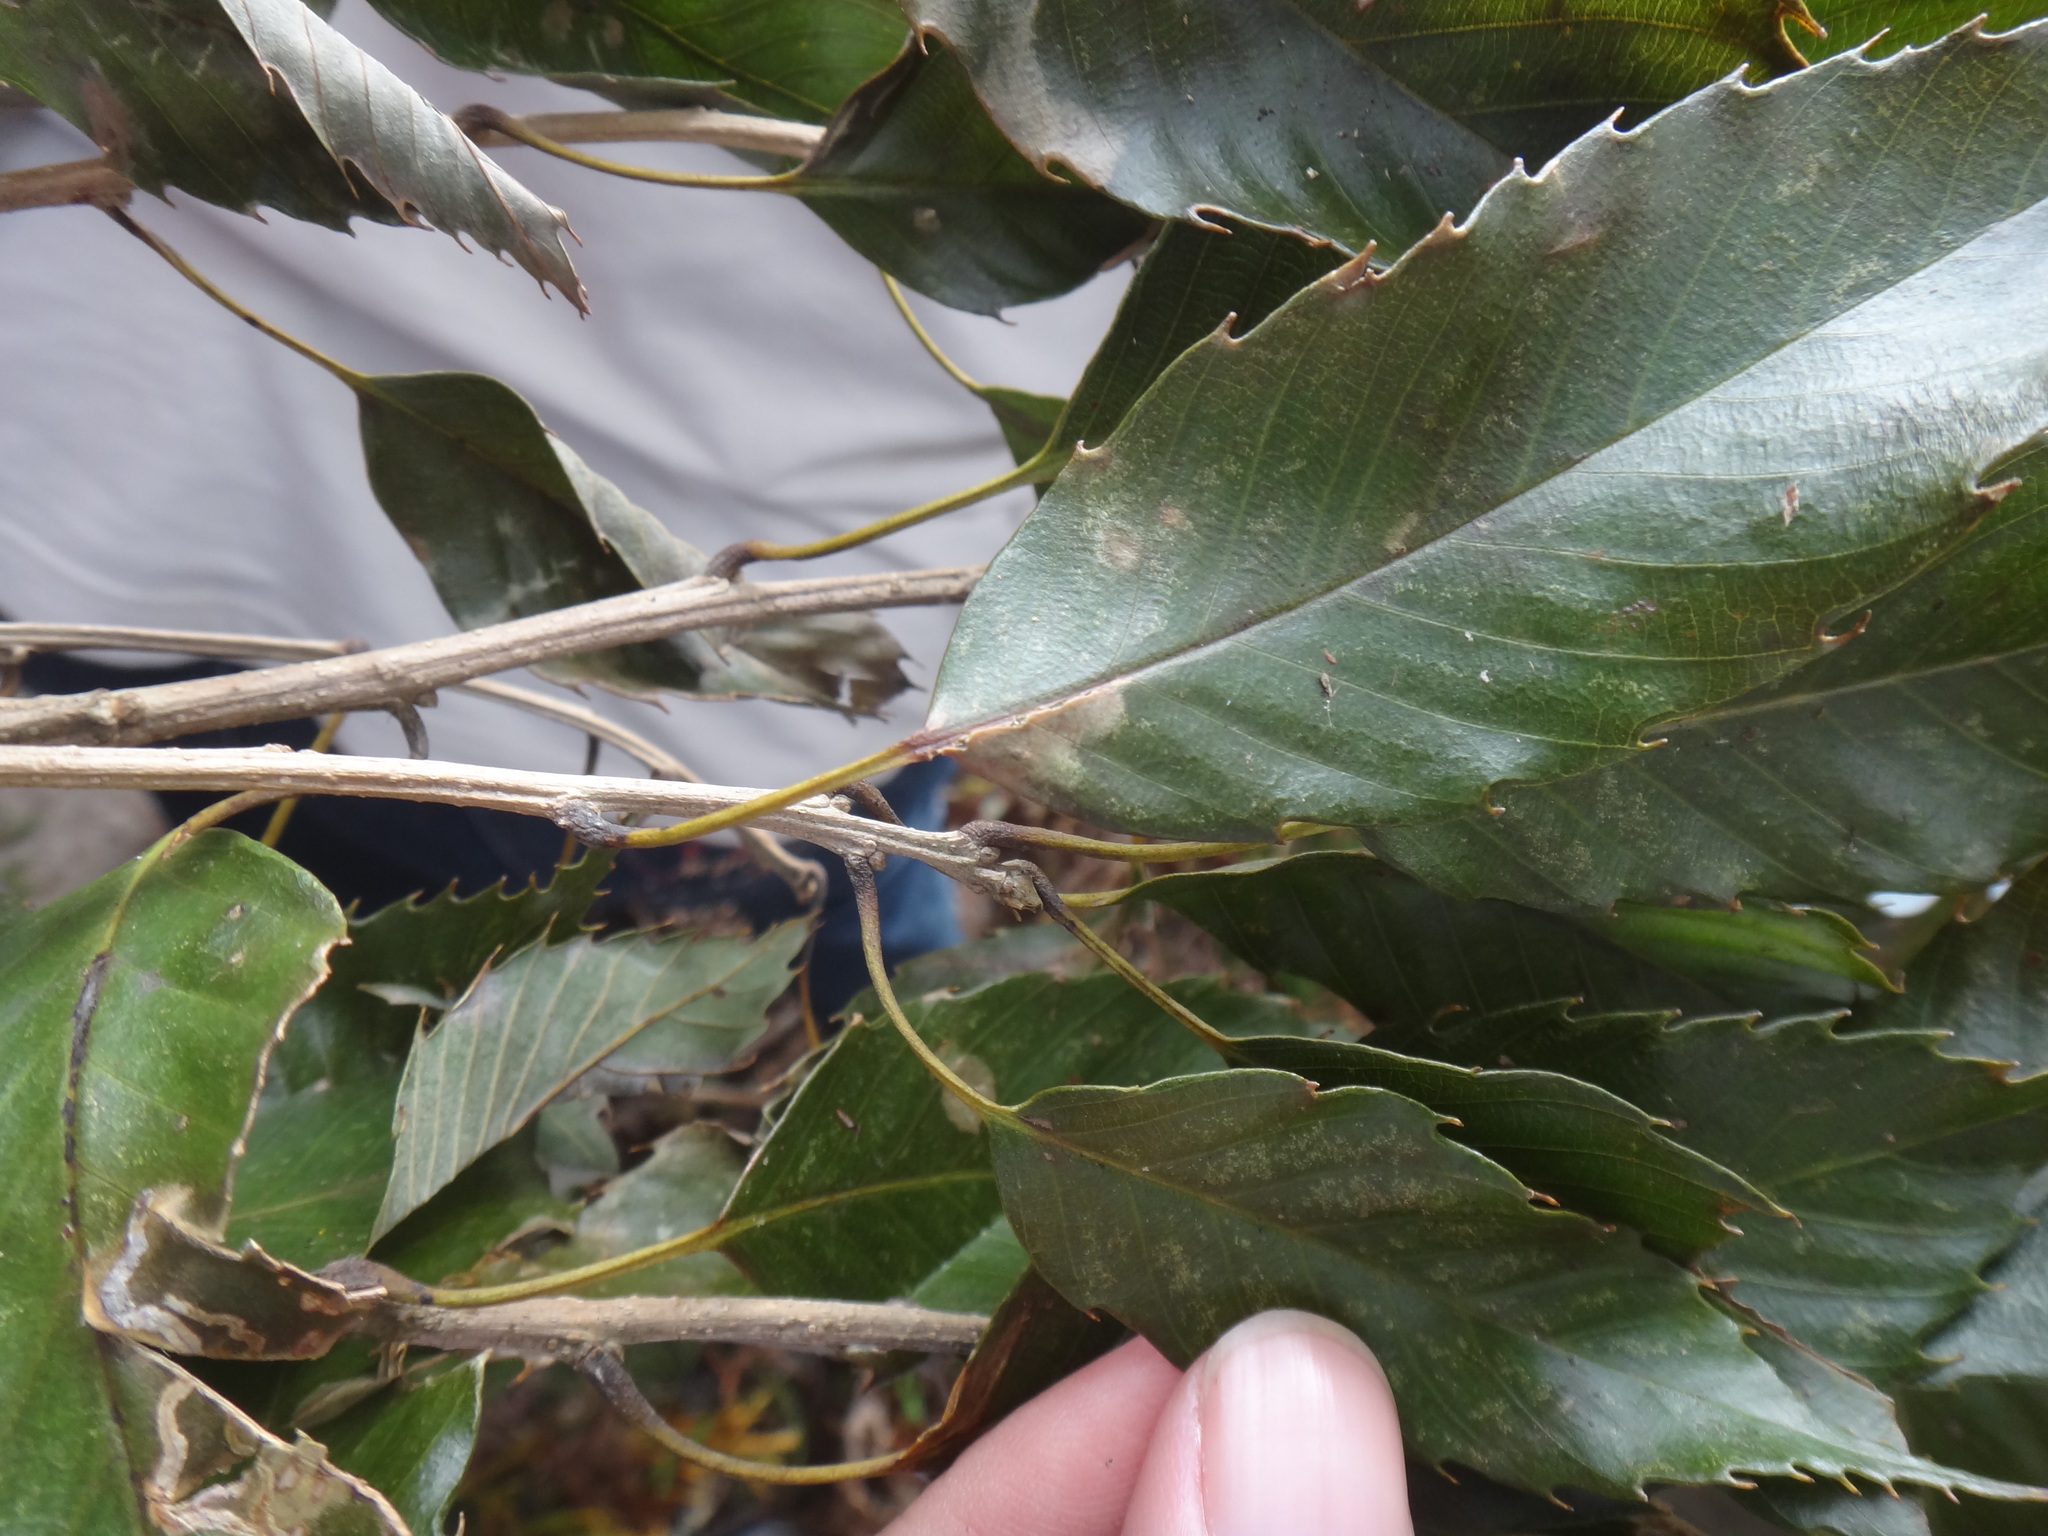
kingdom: Plantae
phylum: Tracheophyta
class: Magnoliopsida
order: Fagales
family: Fagaceae
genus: Quercus
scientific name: Quercus stenophylloides
